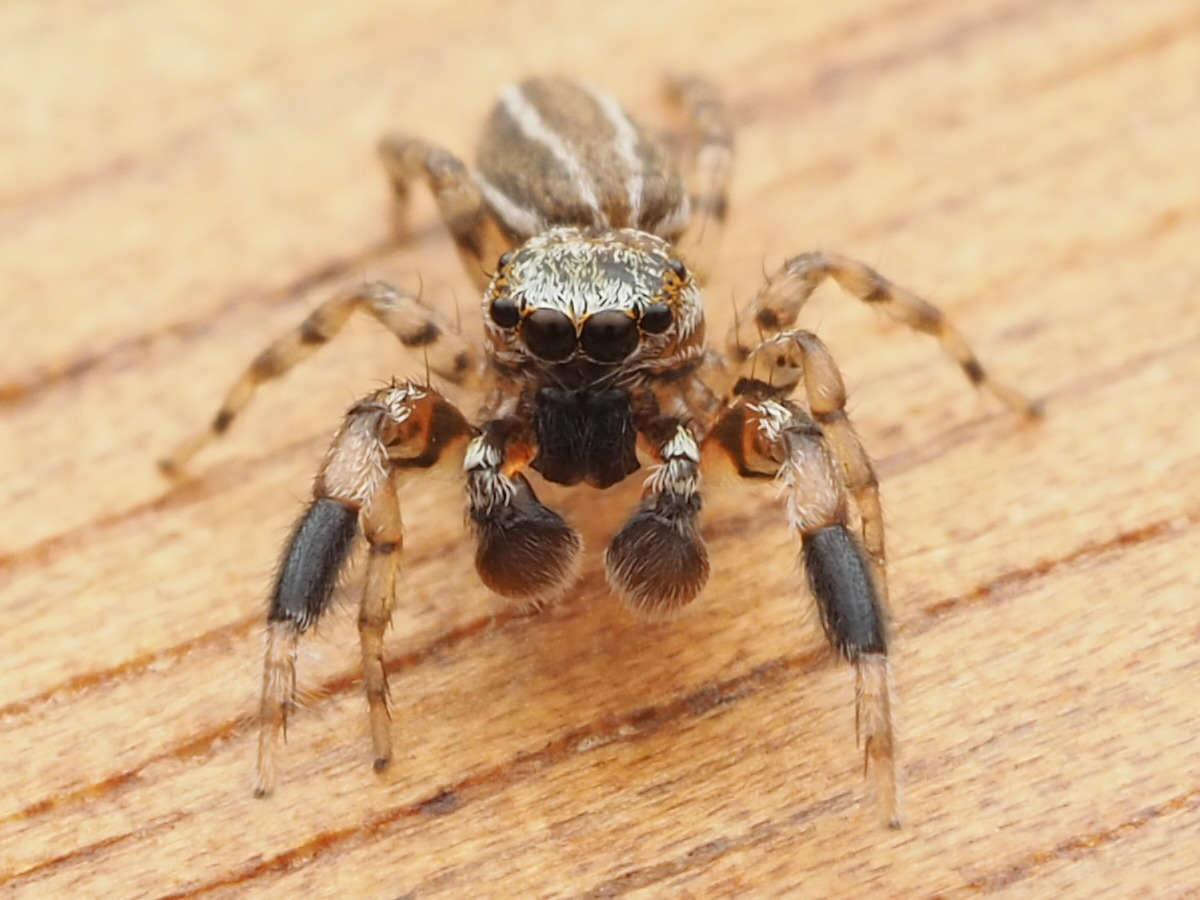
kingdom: Animalia
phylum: Arthropoda
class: Arachnida
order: Araneae
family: Salticidae
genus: Marpissa
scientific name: Marpissa lineata
